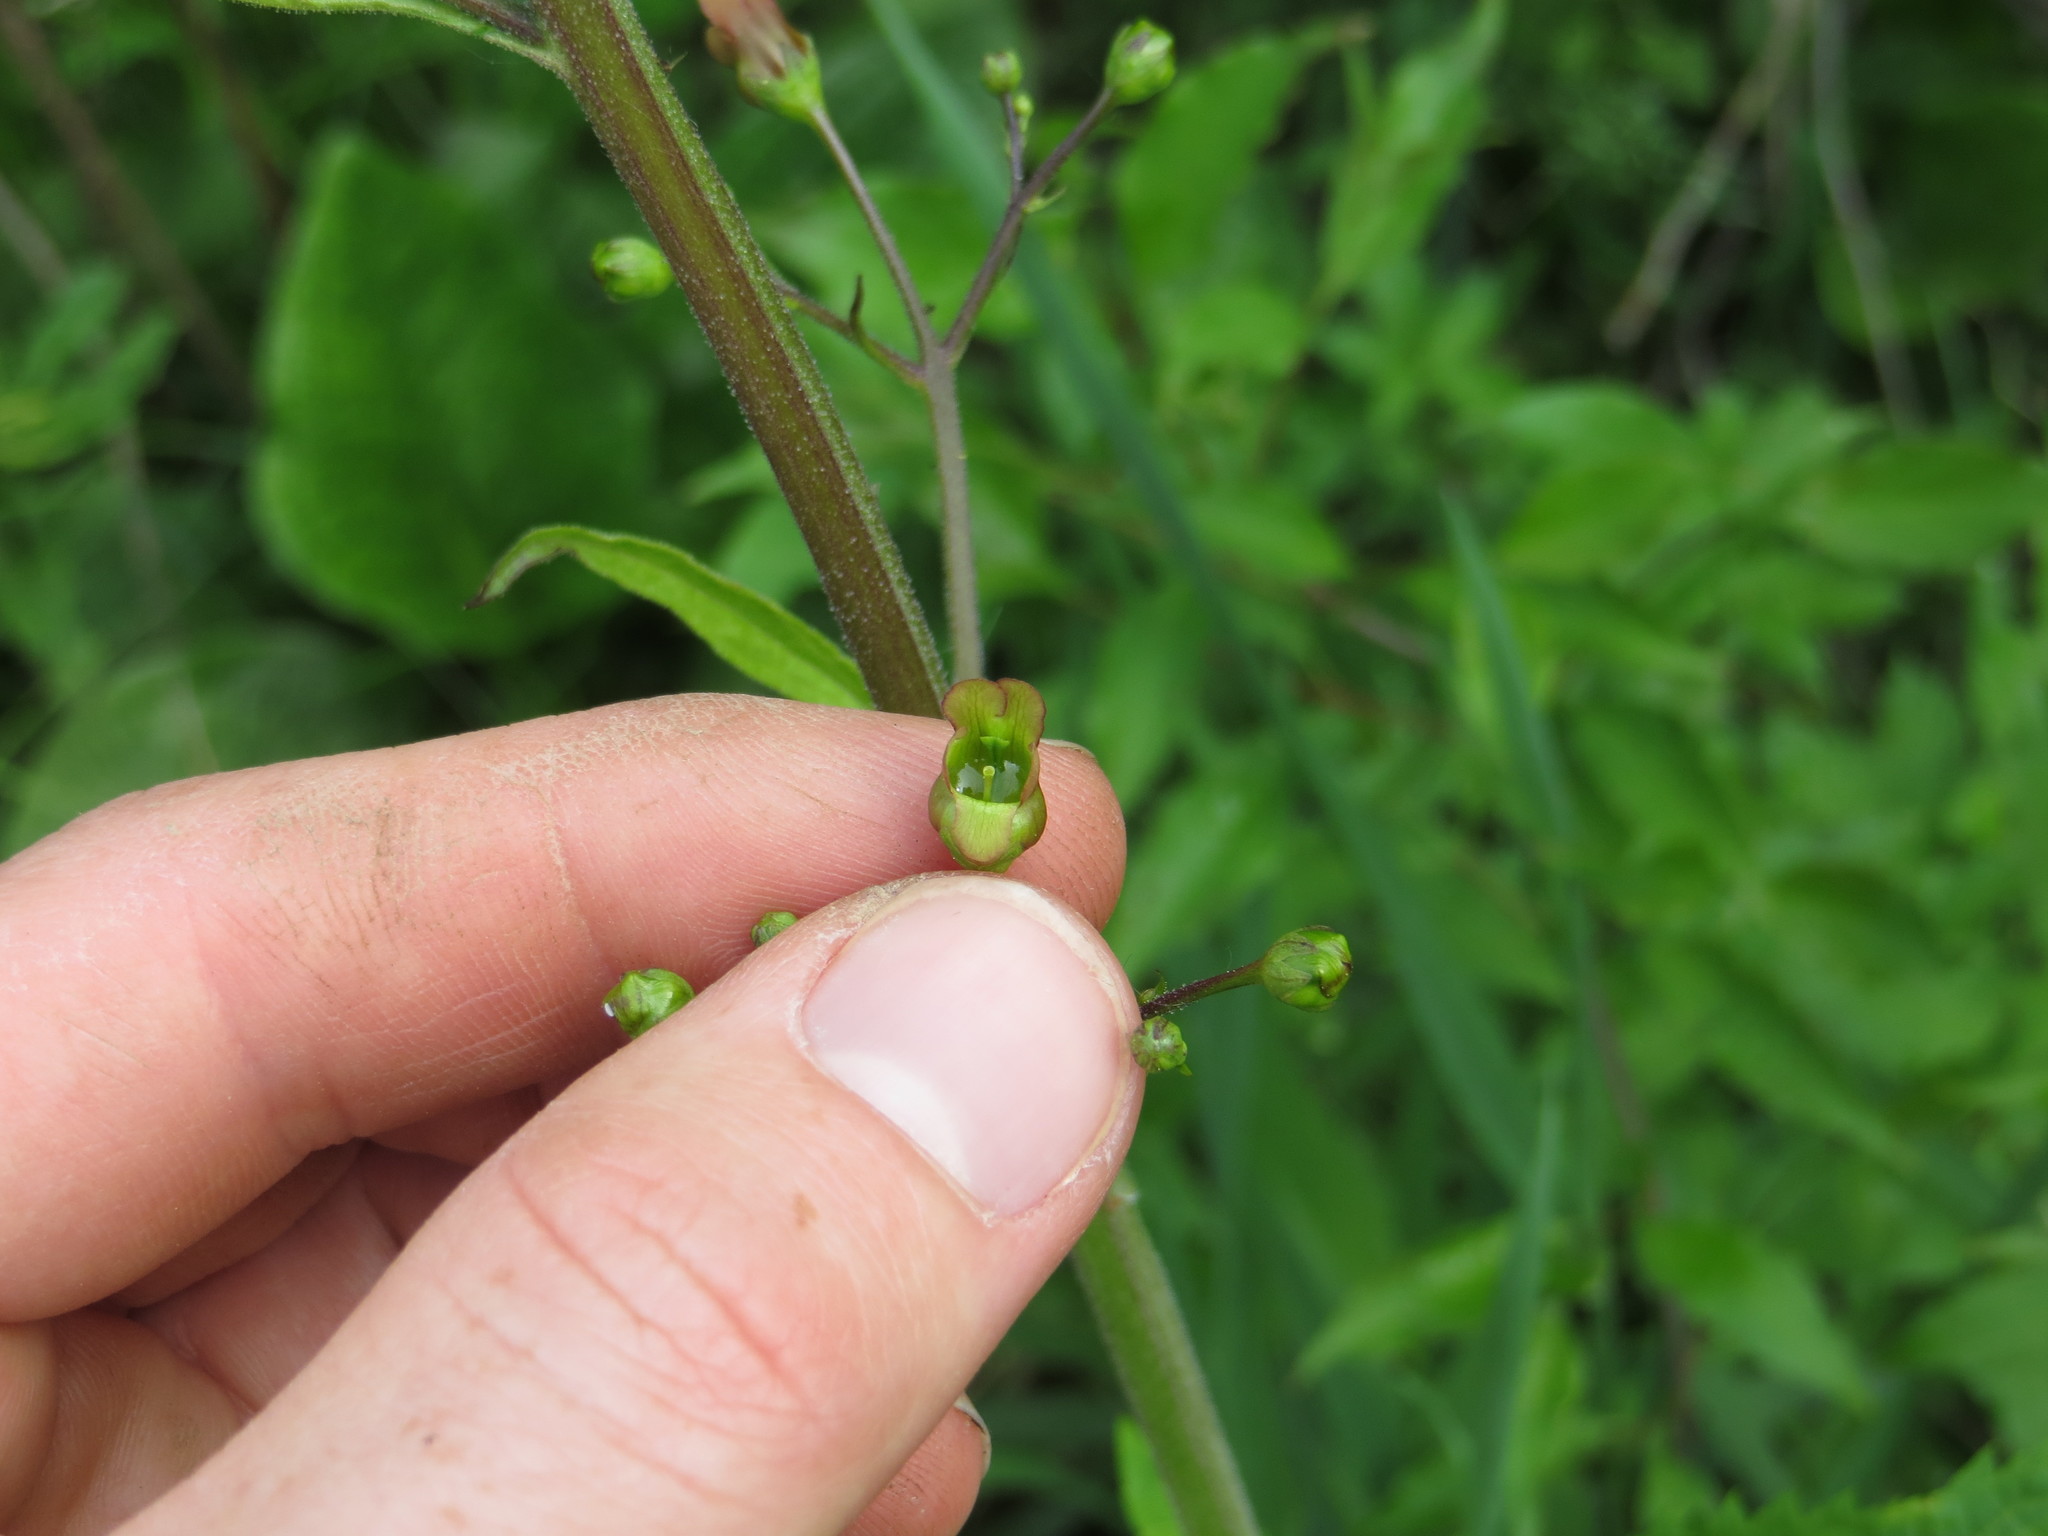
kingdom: Plantae
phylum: Tracheophyta
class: Magnoliopsida
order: Lamiales
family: Scrophulariaceae
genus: Scrophularia
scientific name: Scrophularia lanceolata
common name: American figwort
